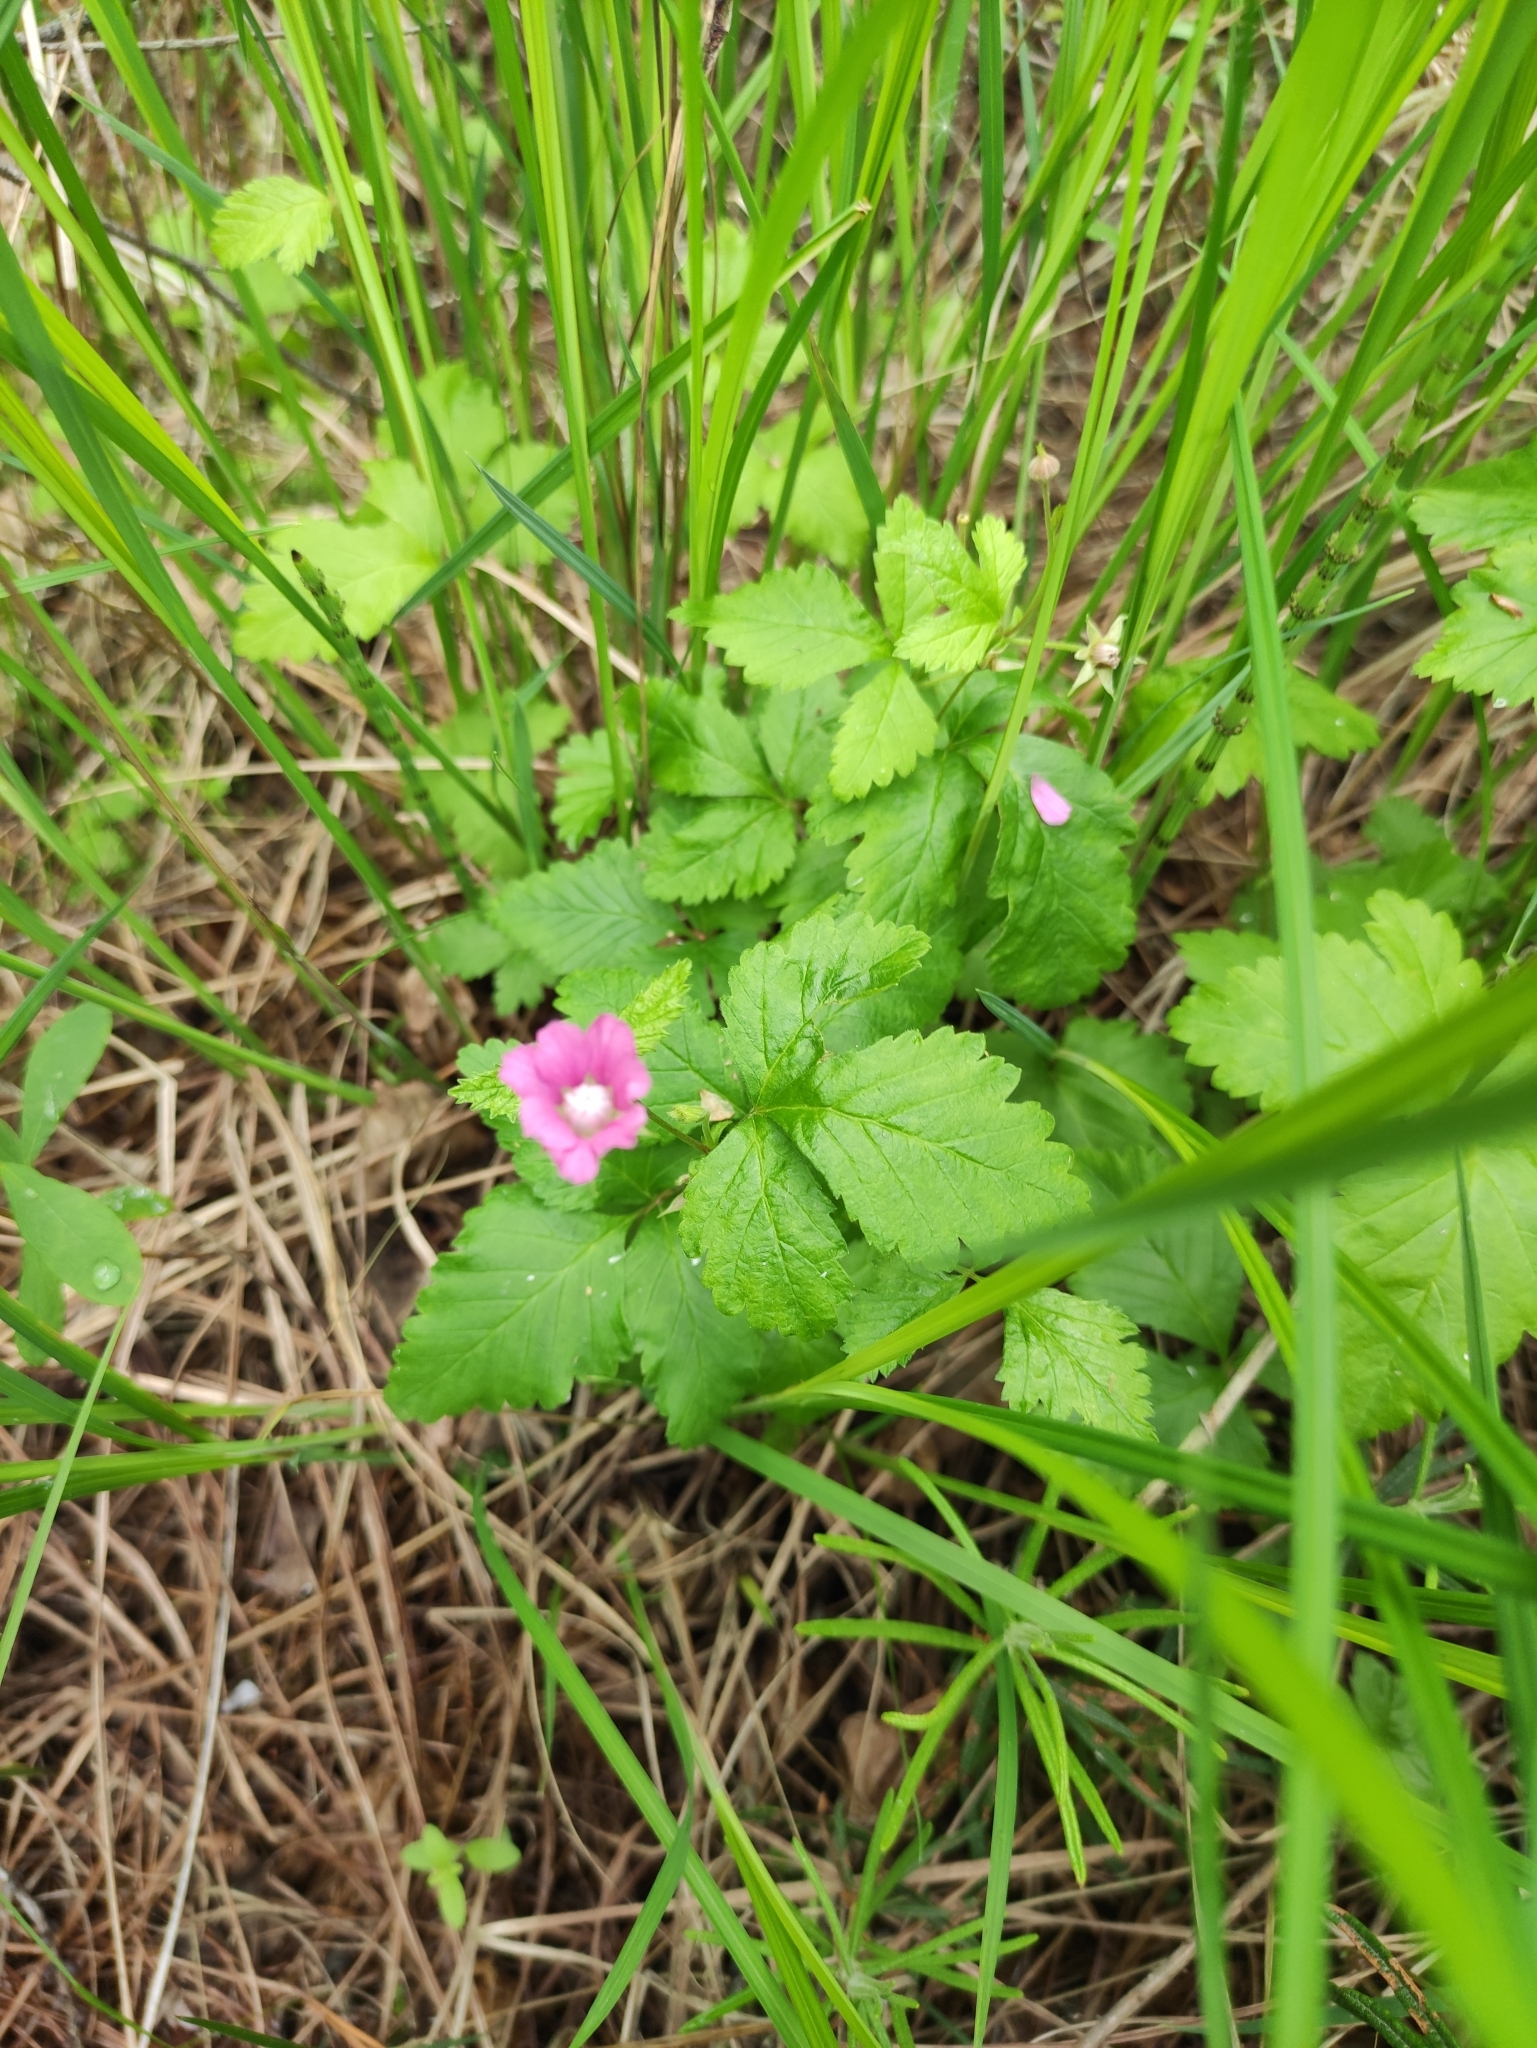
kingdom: Plantae
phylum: Tracheophyta
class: Magnoliopsida
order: Rosales
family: Rosaceae
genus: Rubus
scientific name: Rubus arcticus
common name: Arctic bramble
